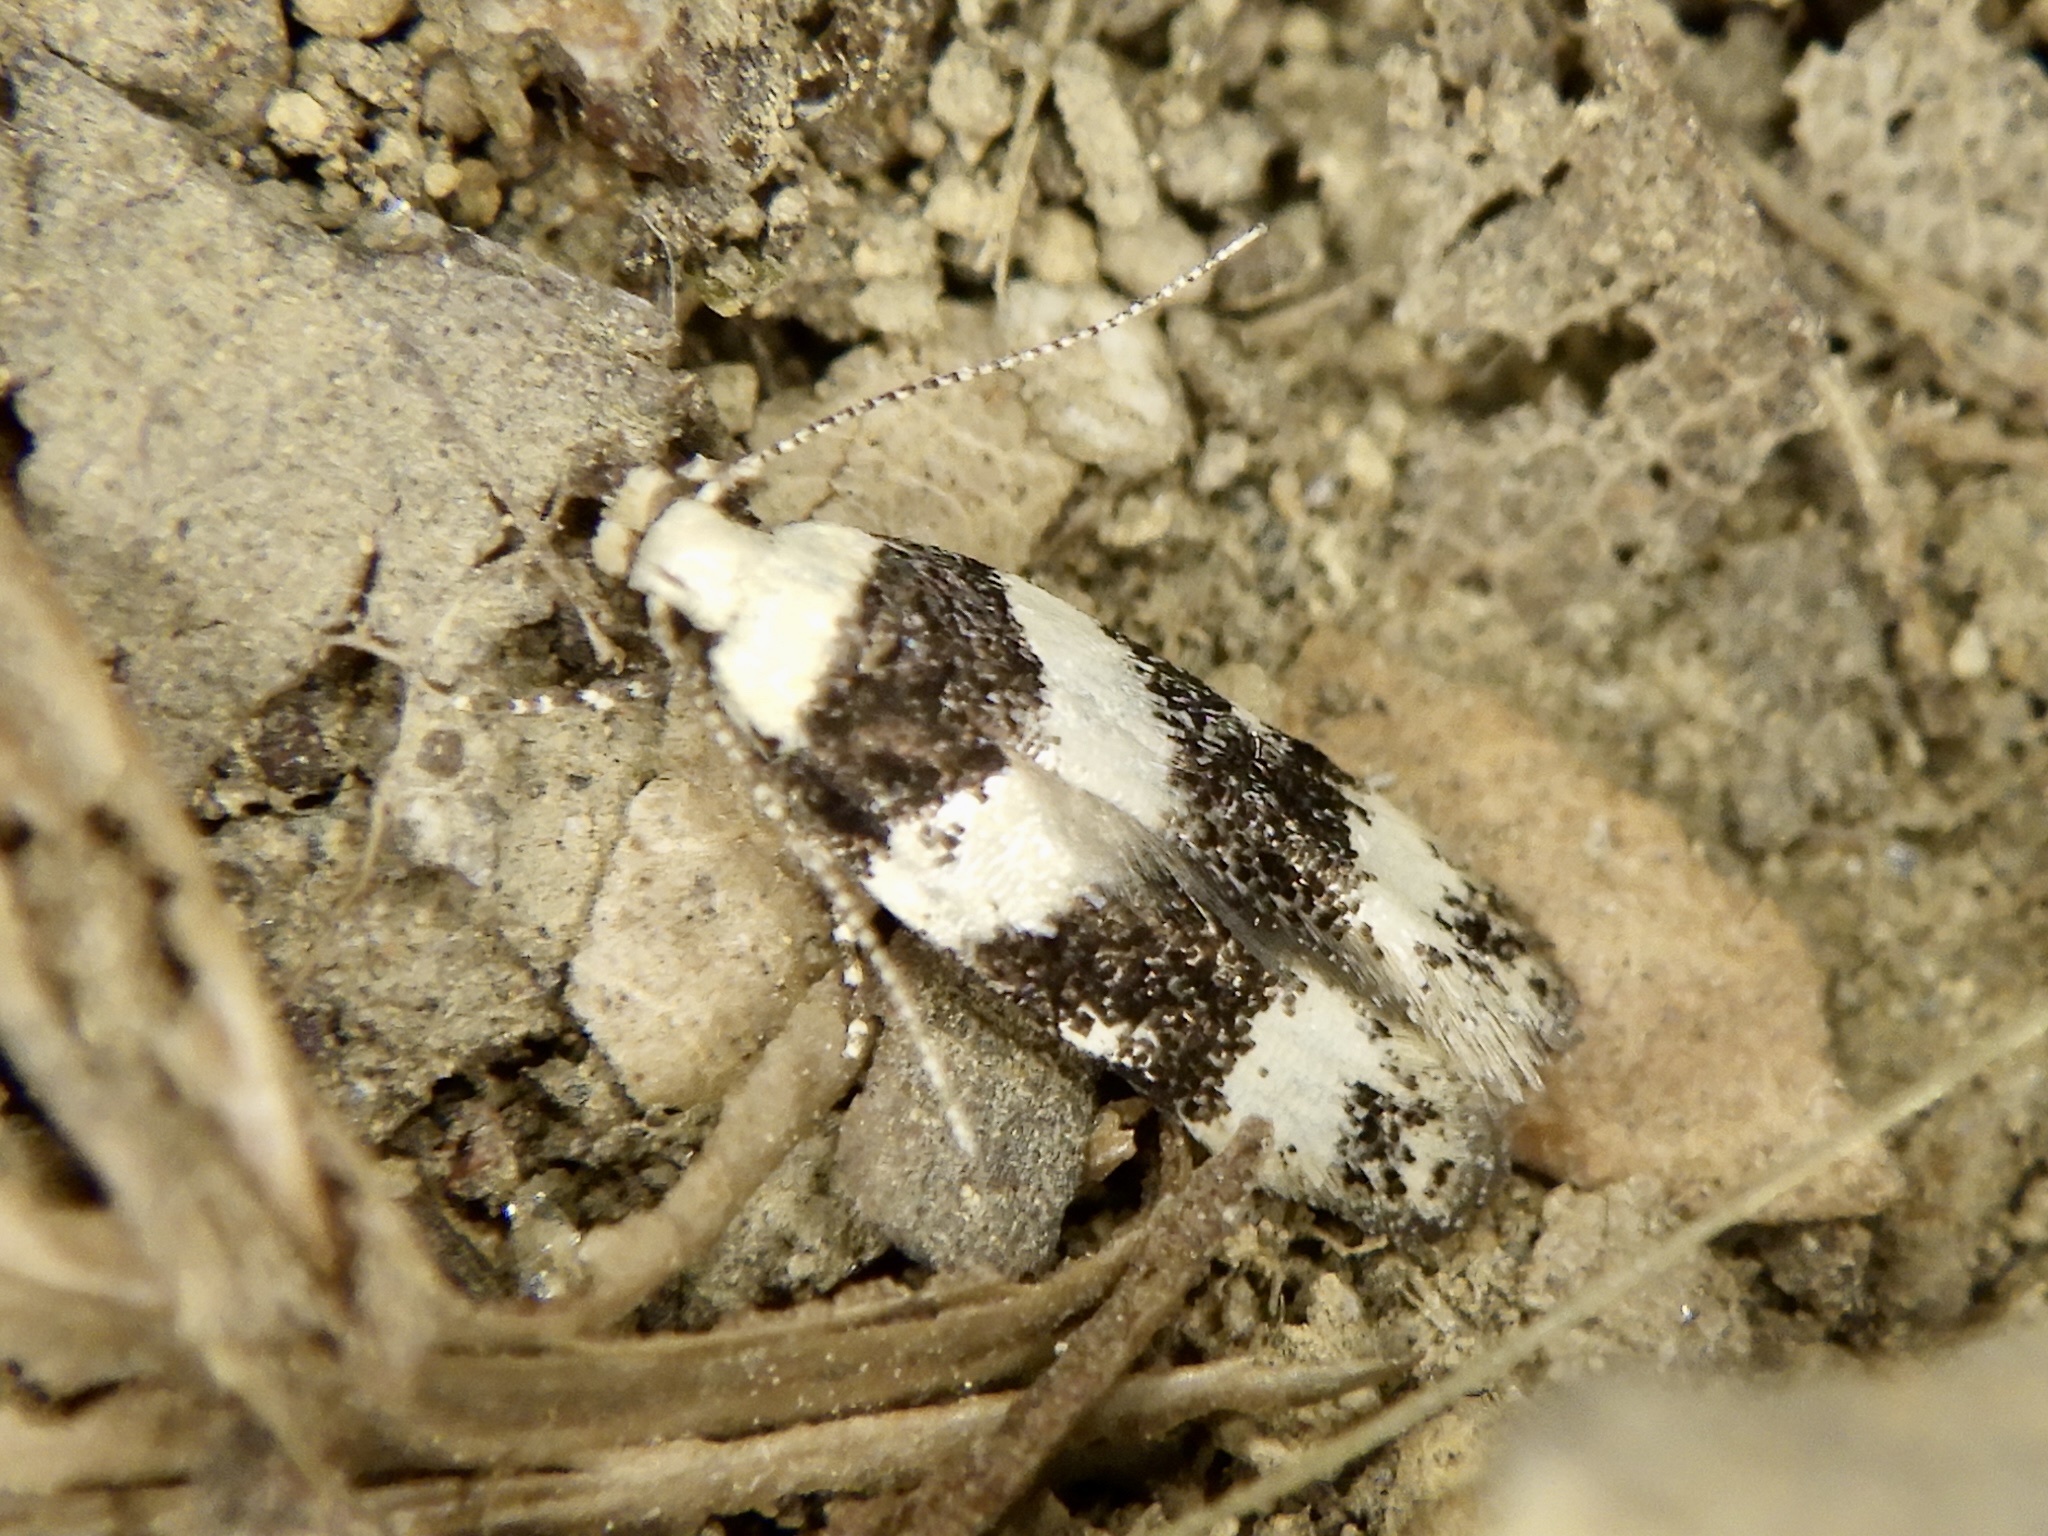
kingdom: Animalia
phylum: Arthropoda
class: Insecta
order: Lepidoptera
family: Gelechiidae
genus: Teleiodes
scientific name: Teleiodes pekunensis
